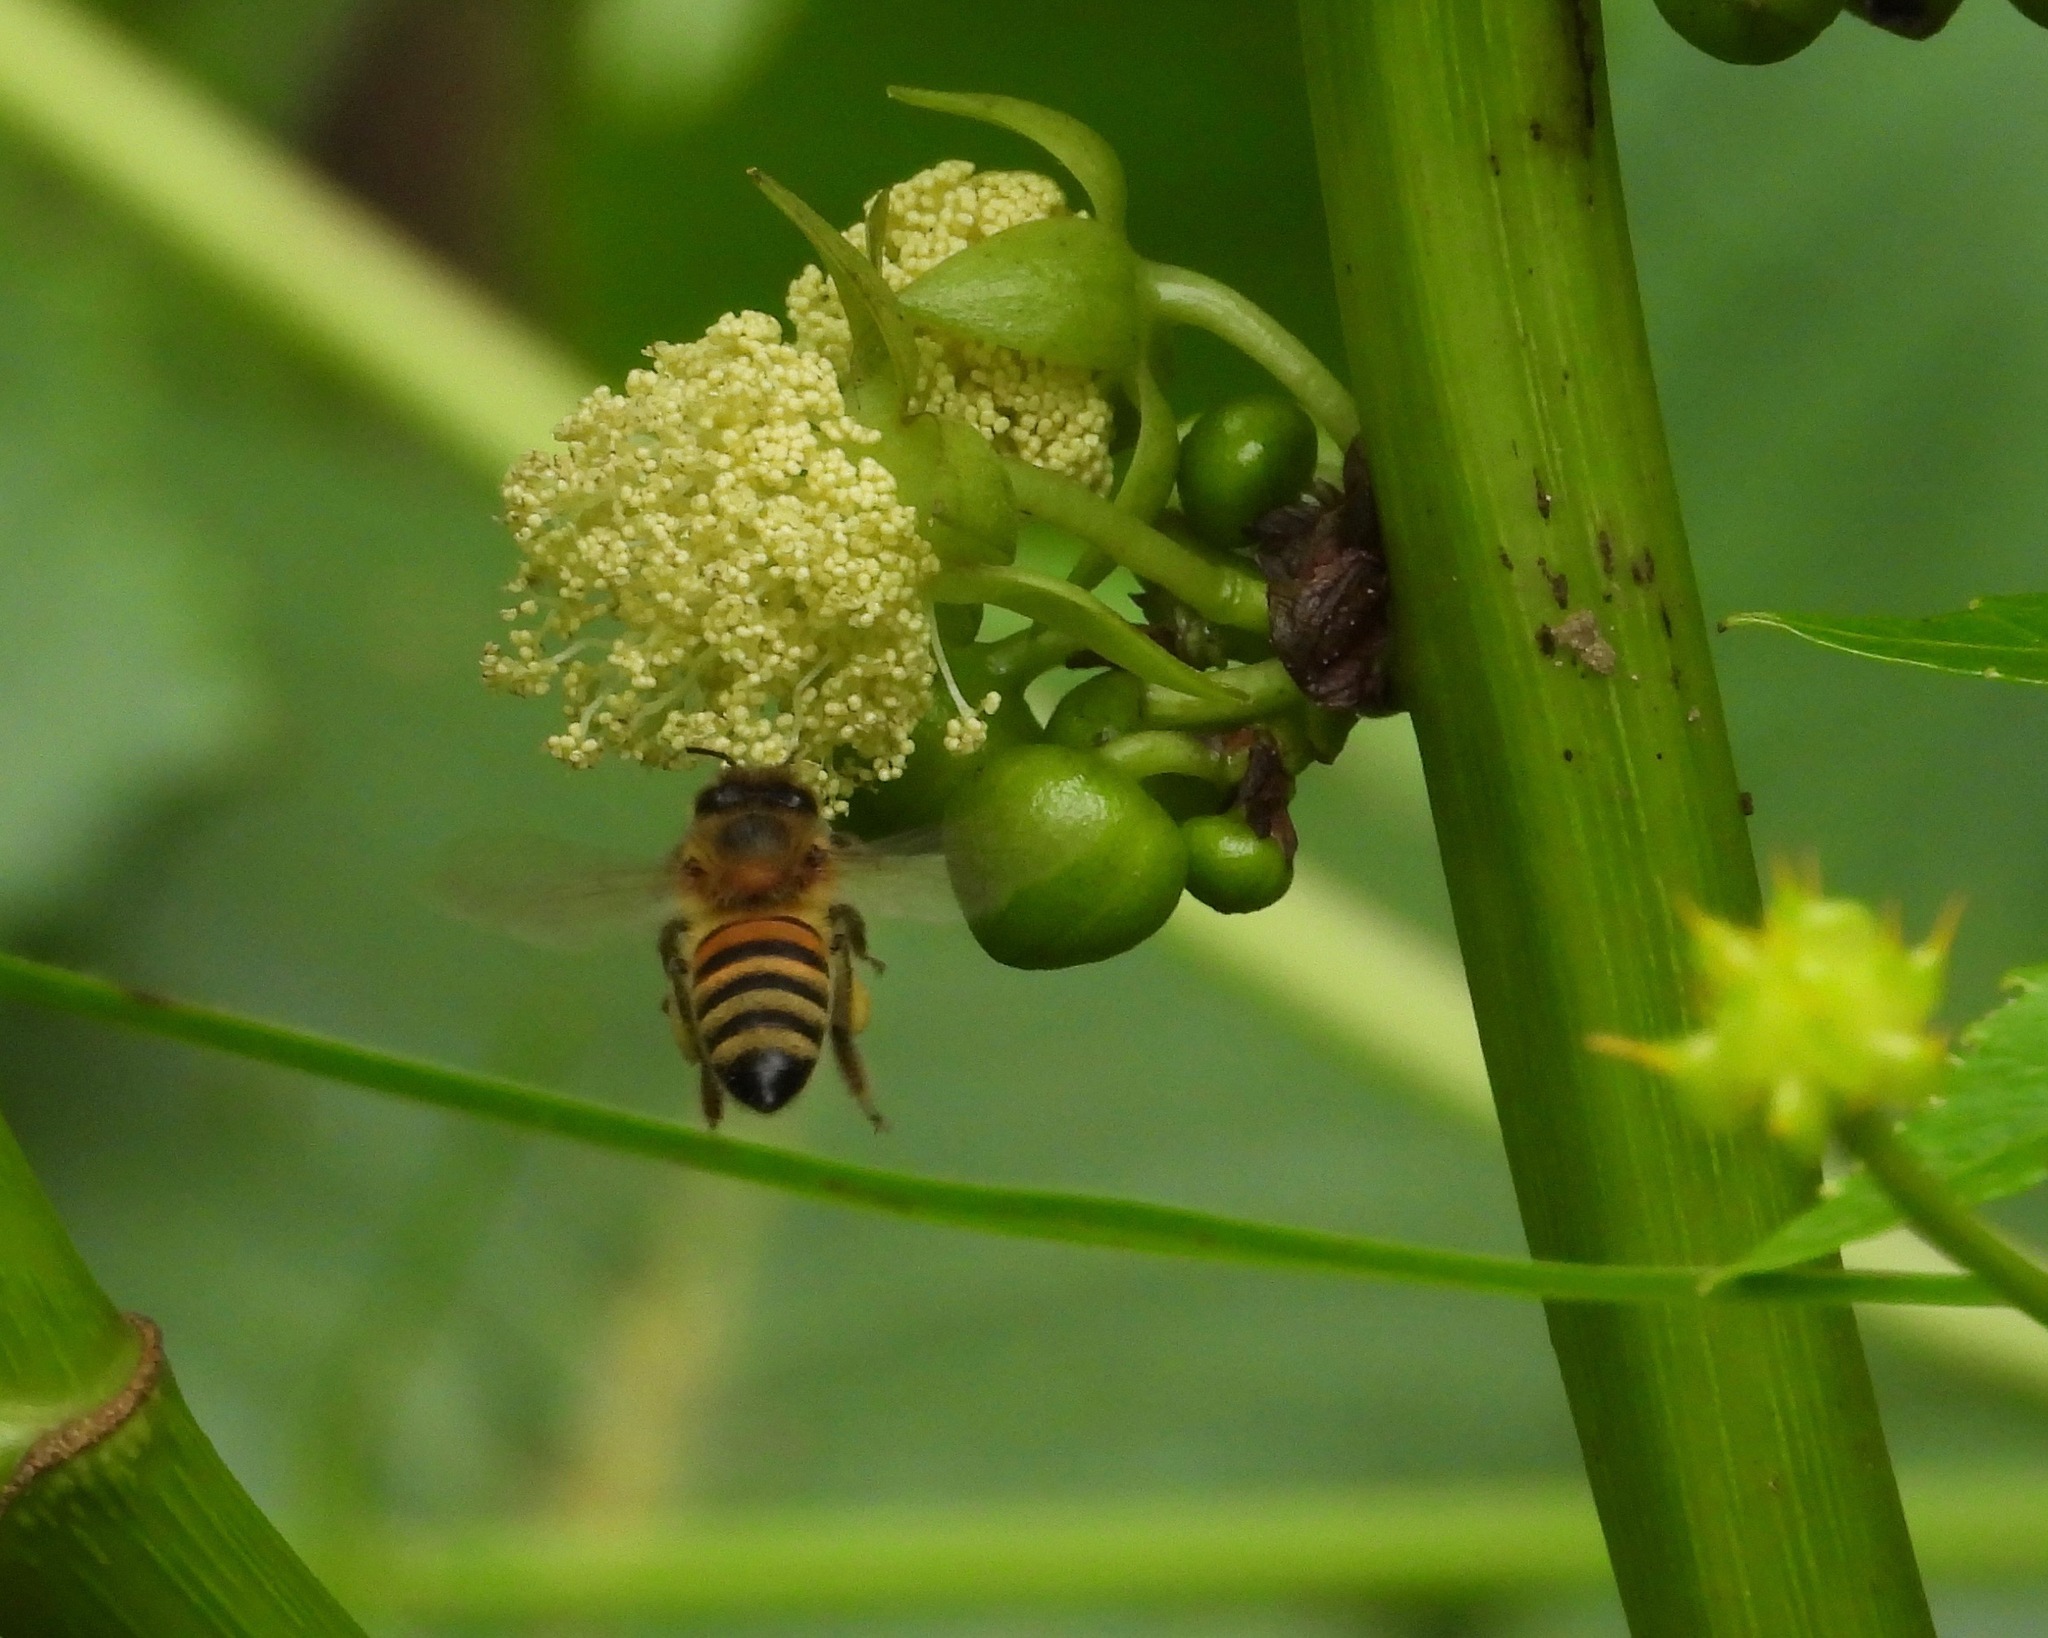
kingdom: Animalia
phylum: Arthropoda
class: Insecta
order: Hymenoptera
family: Apidae
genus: Apis
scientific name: Apis mellifera
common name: Honey bee
